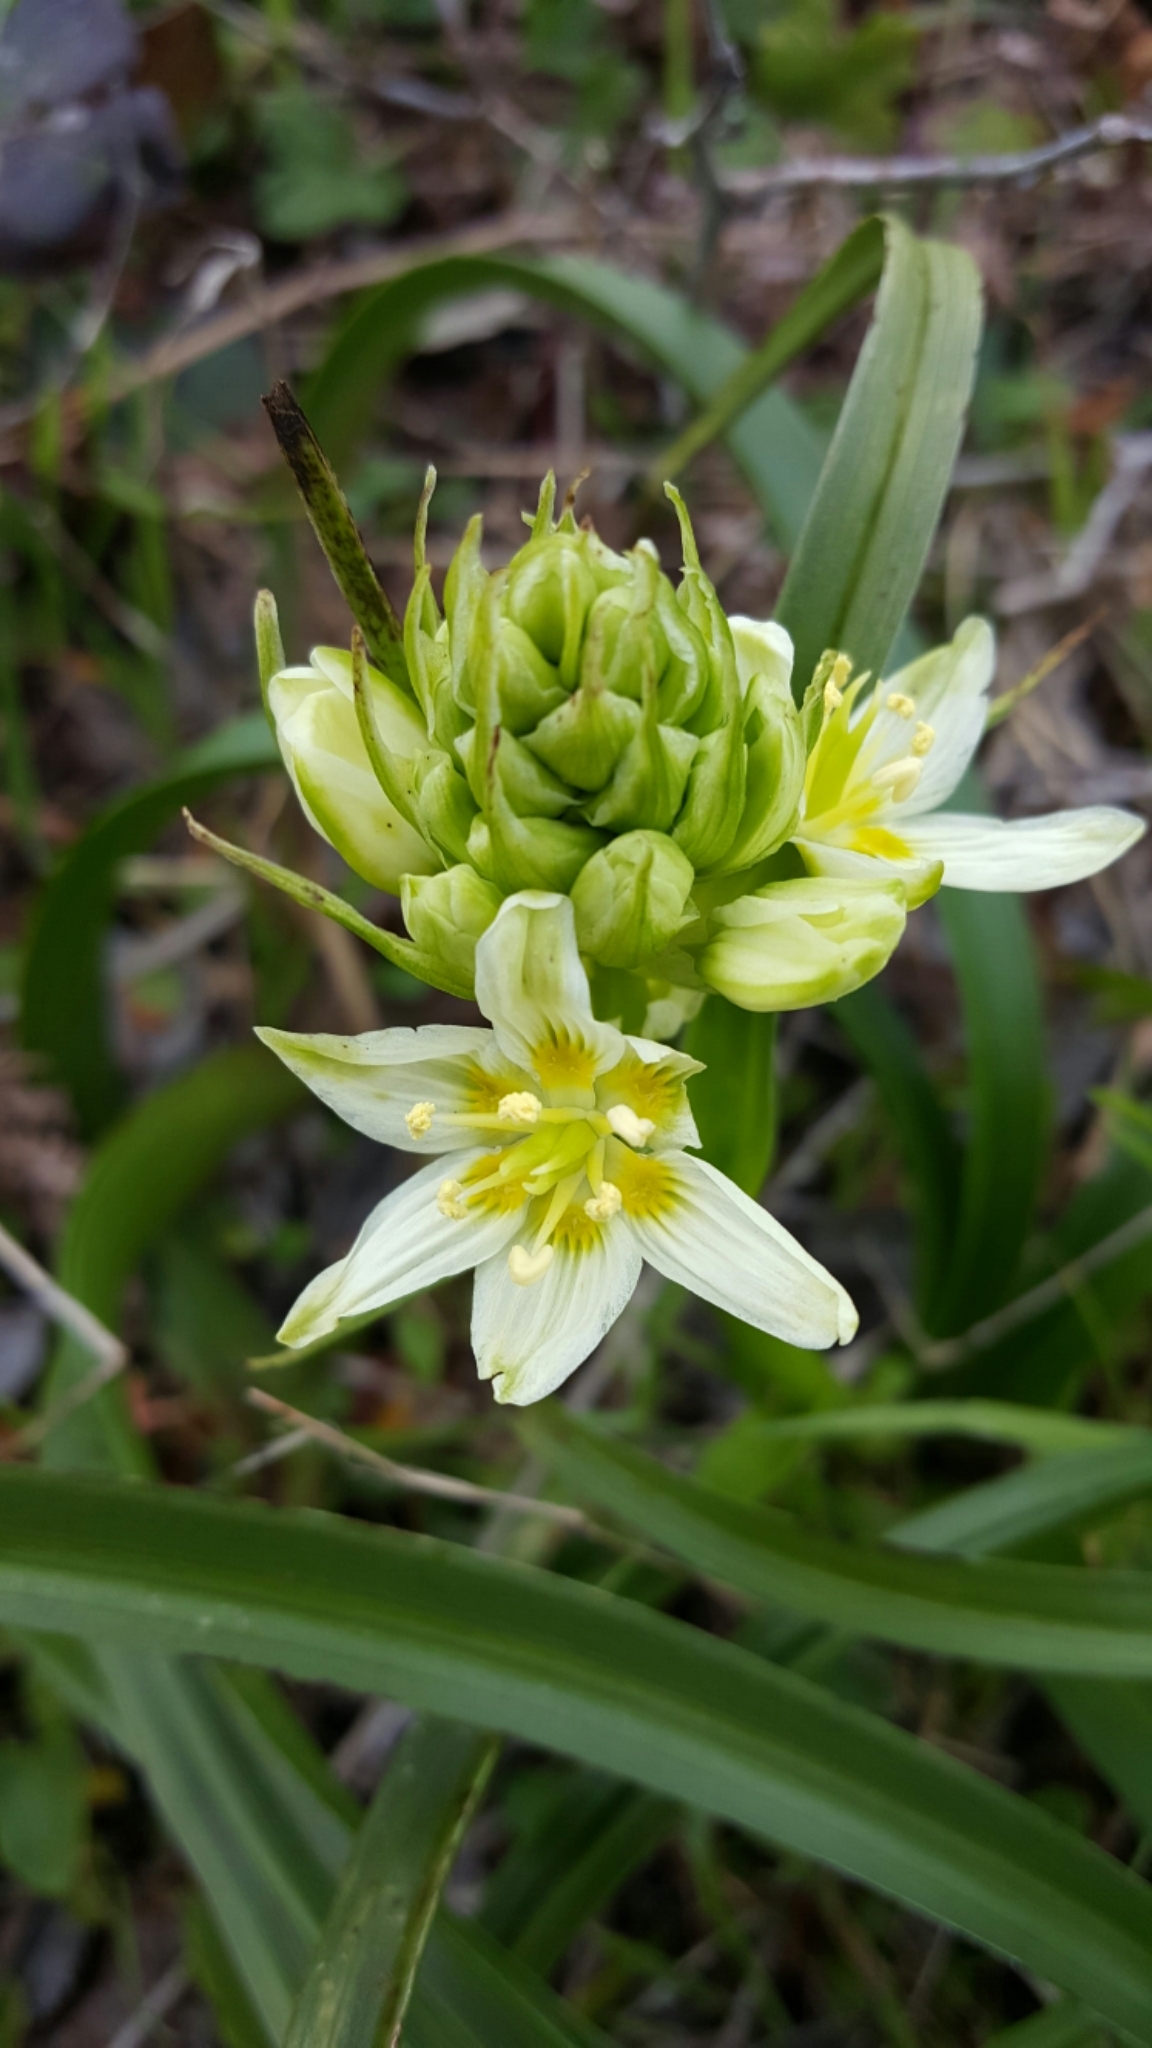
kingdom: Plantae
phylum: Tracheophyta
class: Liliopsida
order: Liliales
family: Melanthiaceae
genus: Toxicoscordion
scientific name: Toxicoscordion fremontii
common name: Fremont's death camas
